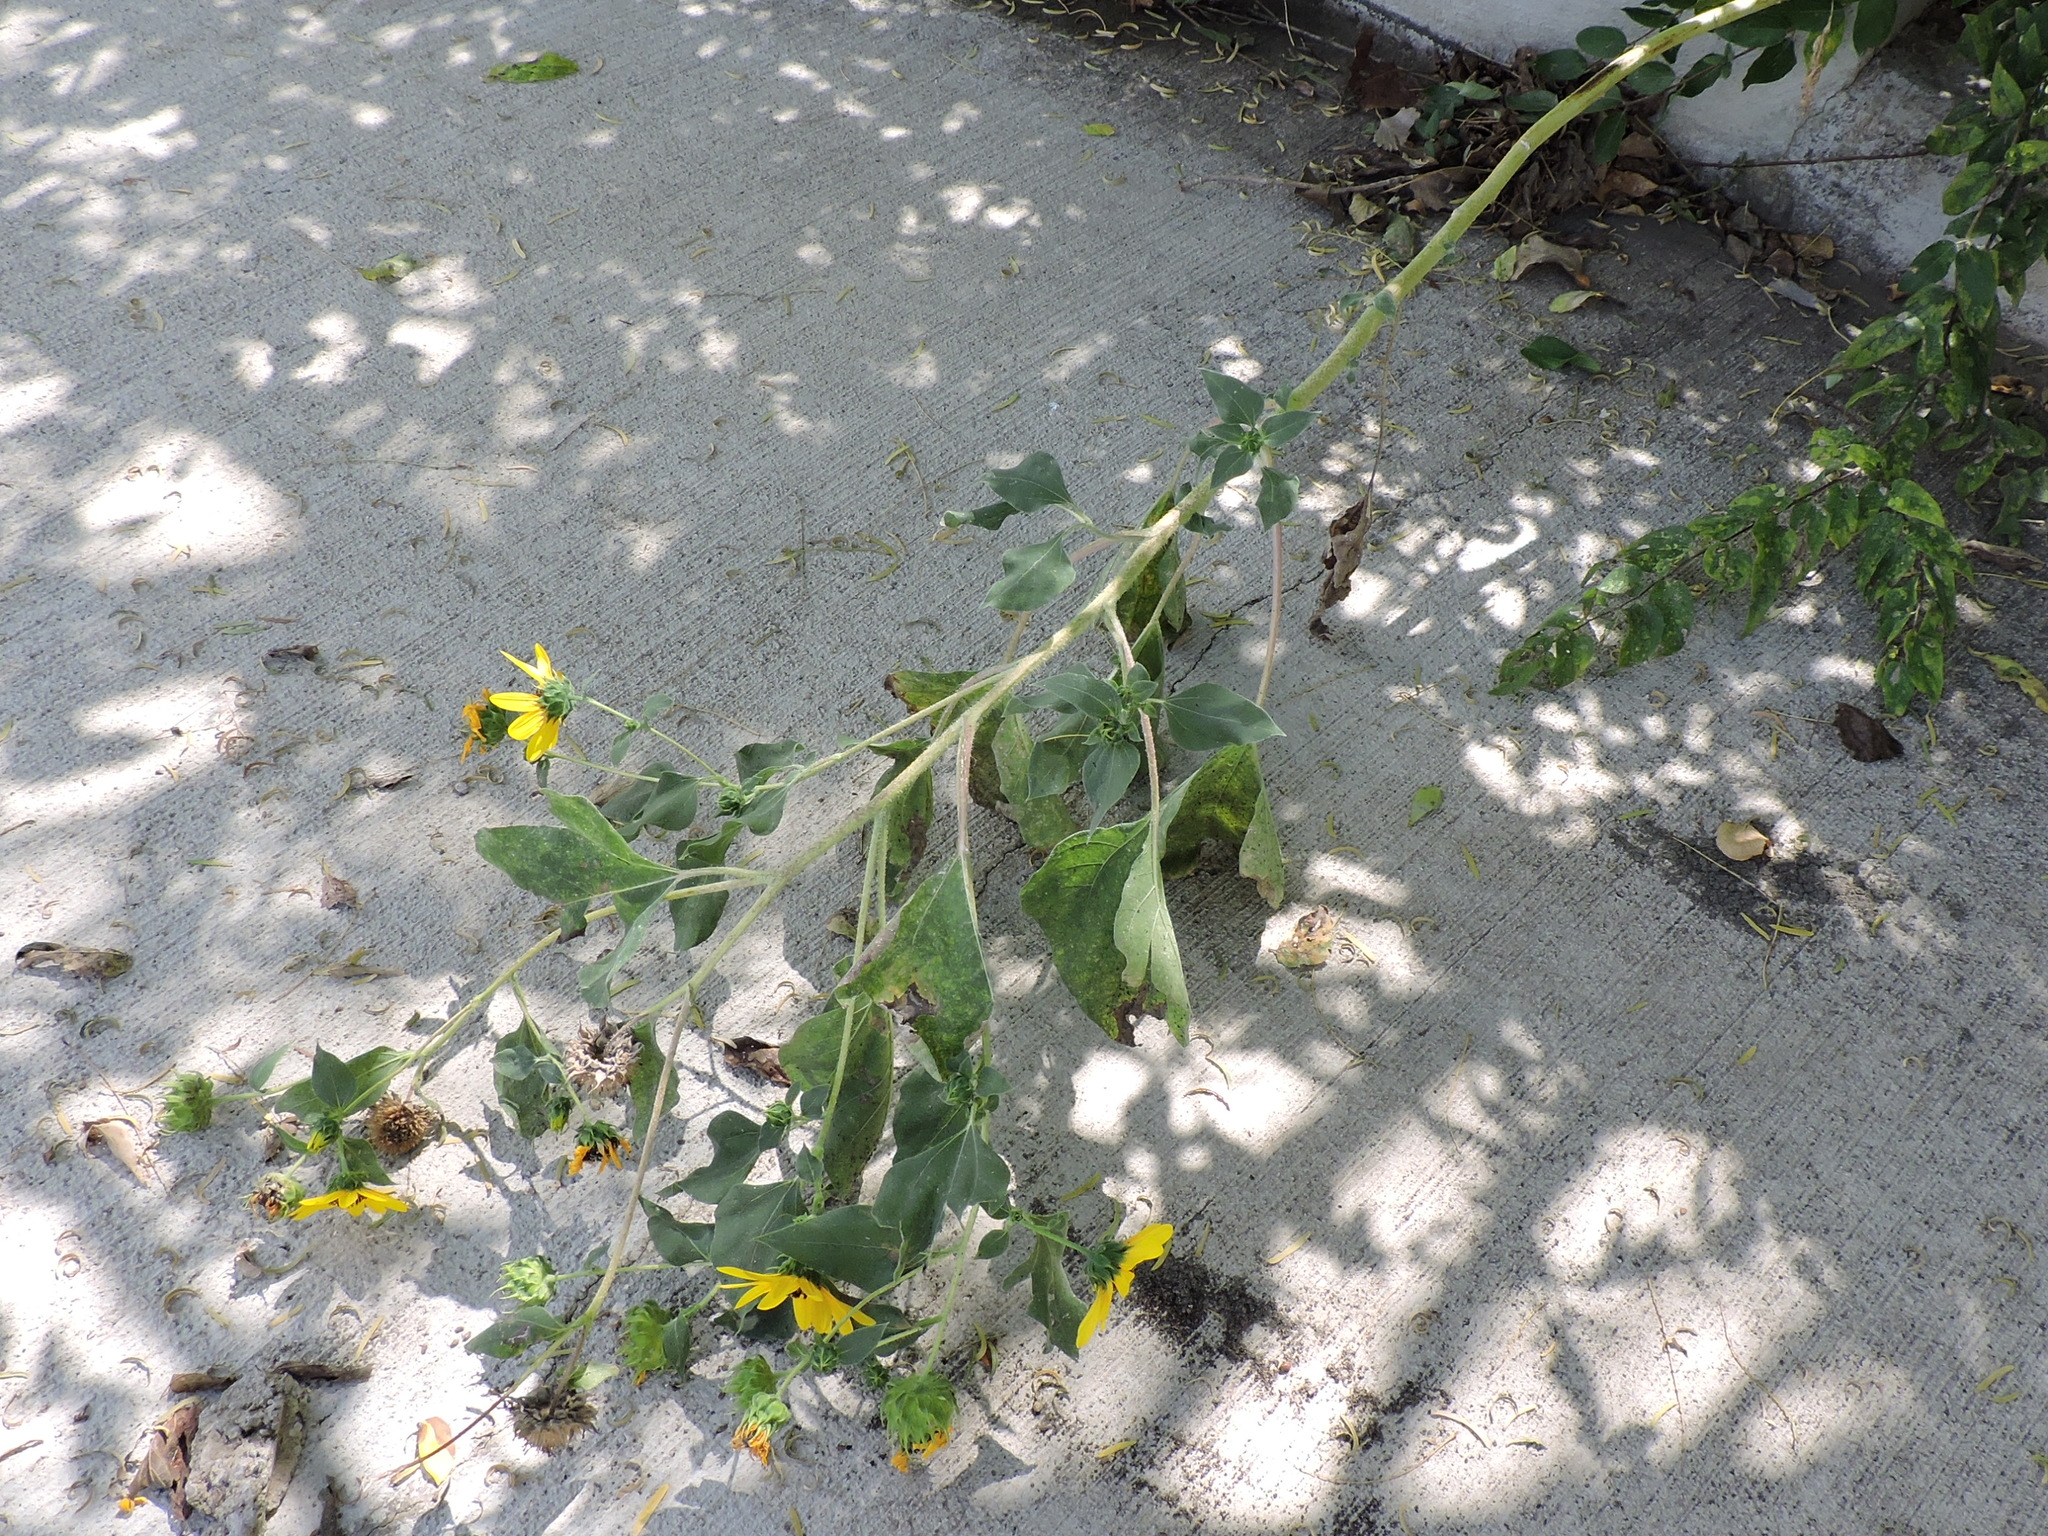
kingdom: Plantae
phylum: Tracheophyta
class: Magnoliopsida
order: Asterales
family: Asteraceae
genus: Helianthus
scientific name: Helianthus annuus
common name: Sunflower
